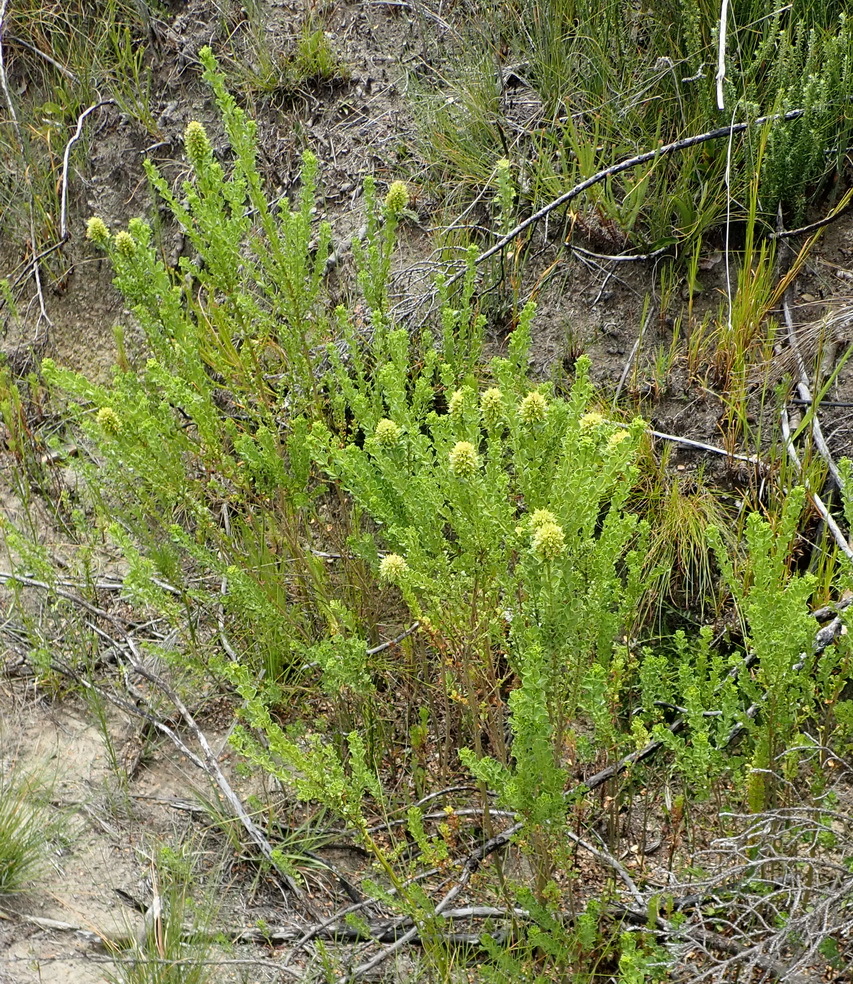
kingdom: Plantae
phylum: Tracheophyta
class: Magnoliopsida
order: Fabales
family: Fabaceae
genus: Psoralea
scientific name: Psoralea acuminata
